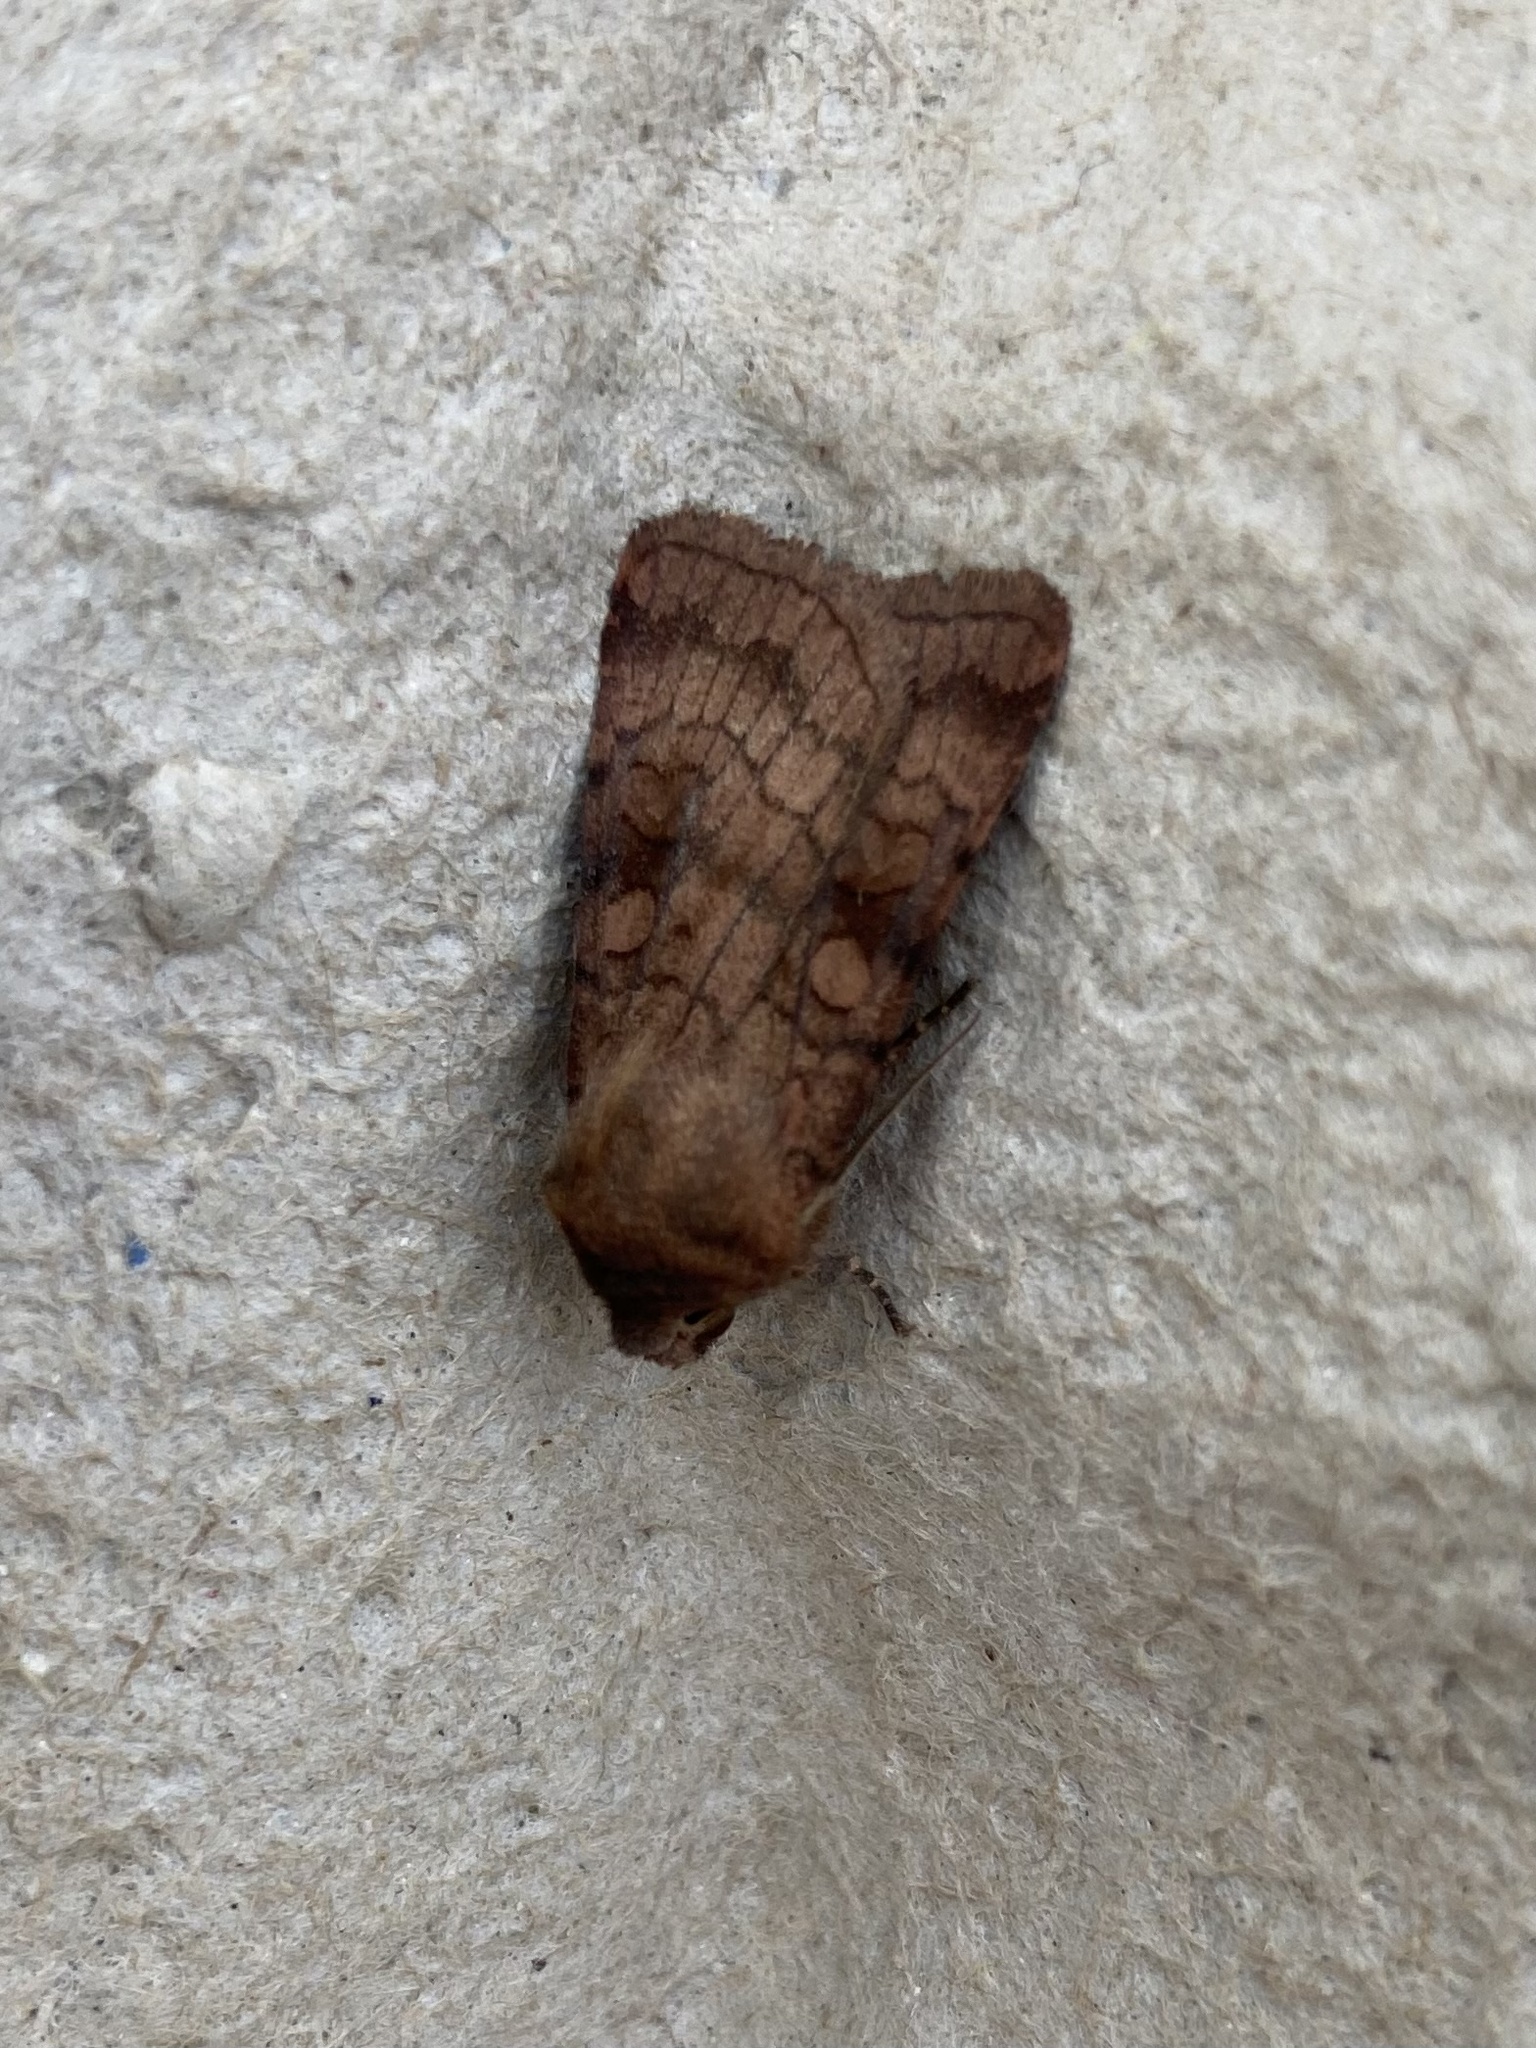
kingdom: Animalia
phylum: Arthropoda
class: Insecta
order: Lepidoptera
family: Noctuidae
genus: Xestia
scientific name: Xestia sexstrigata
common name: Six-striped rustic
